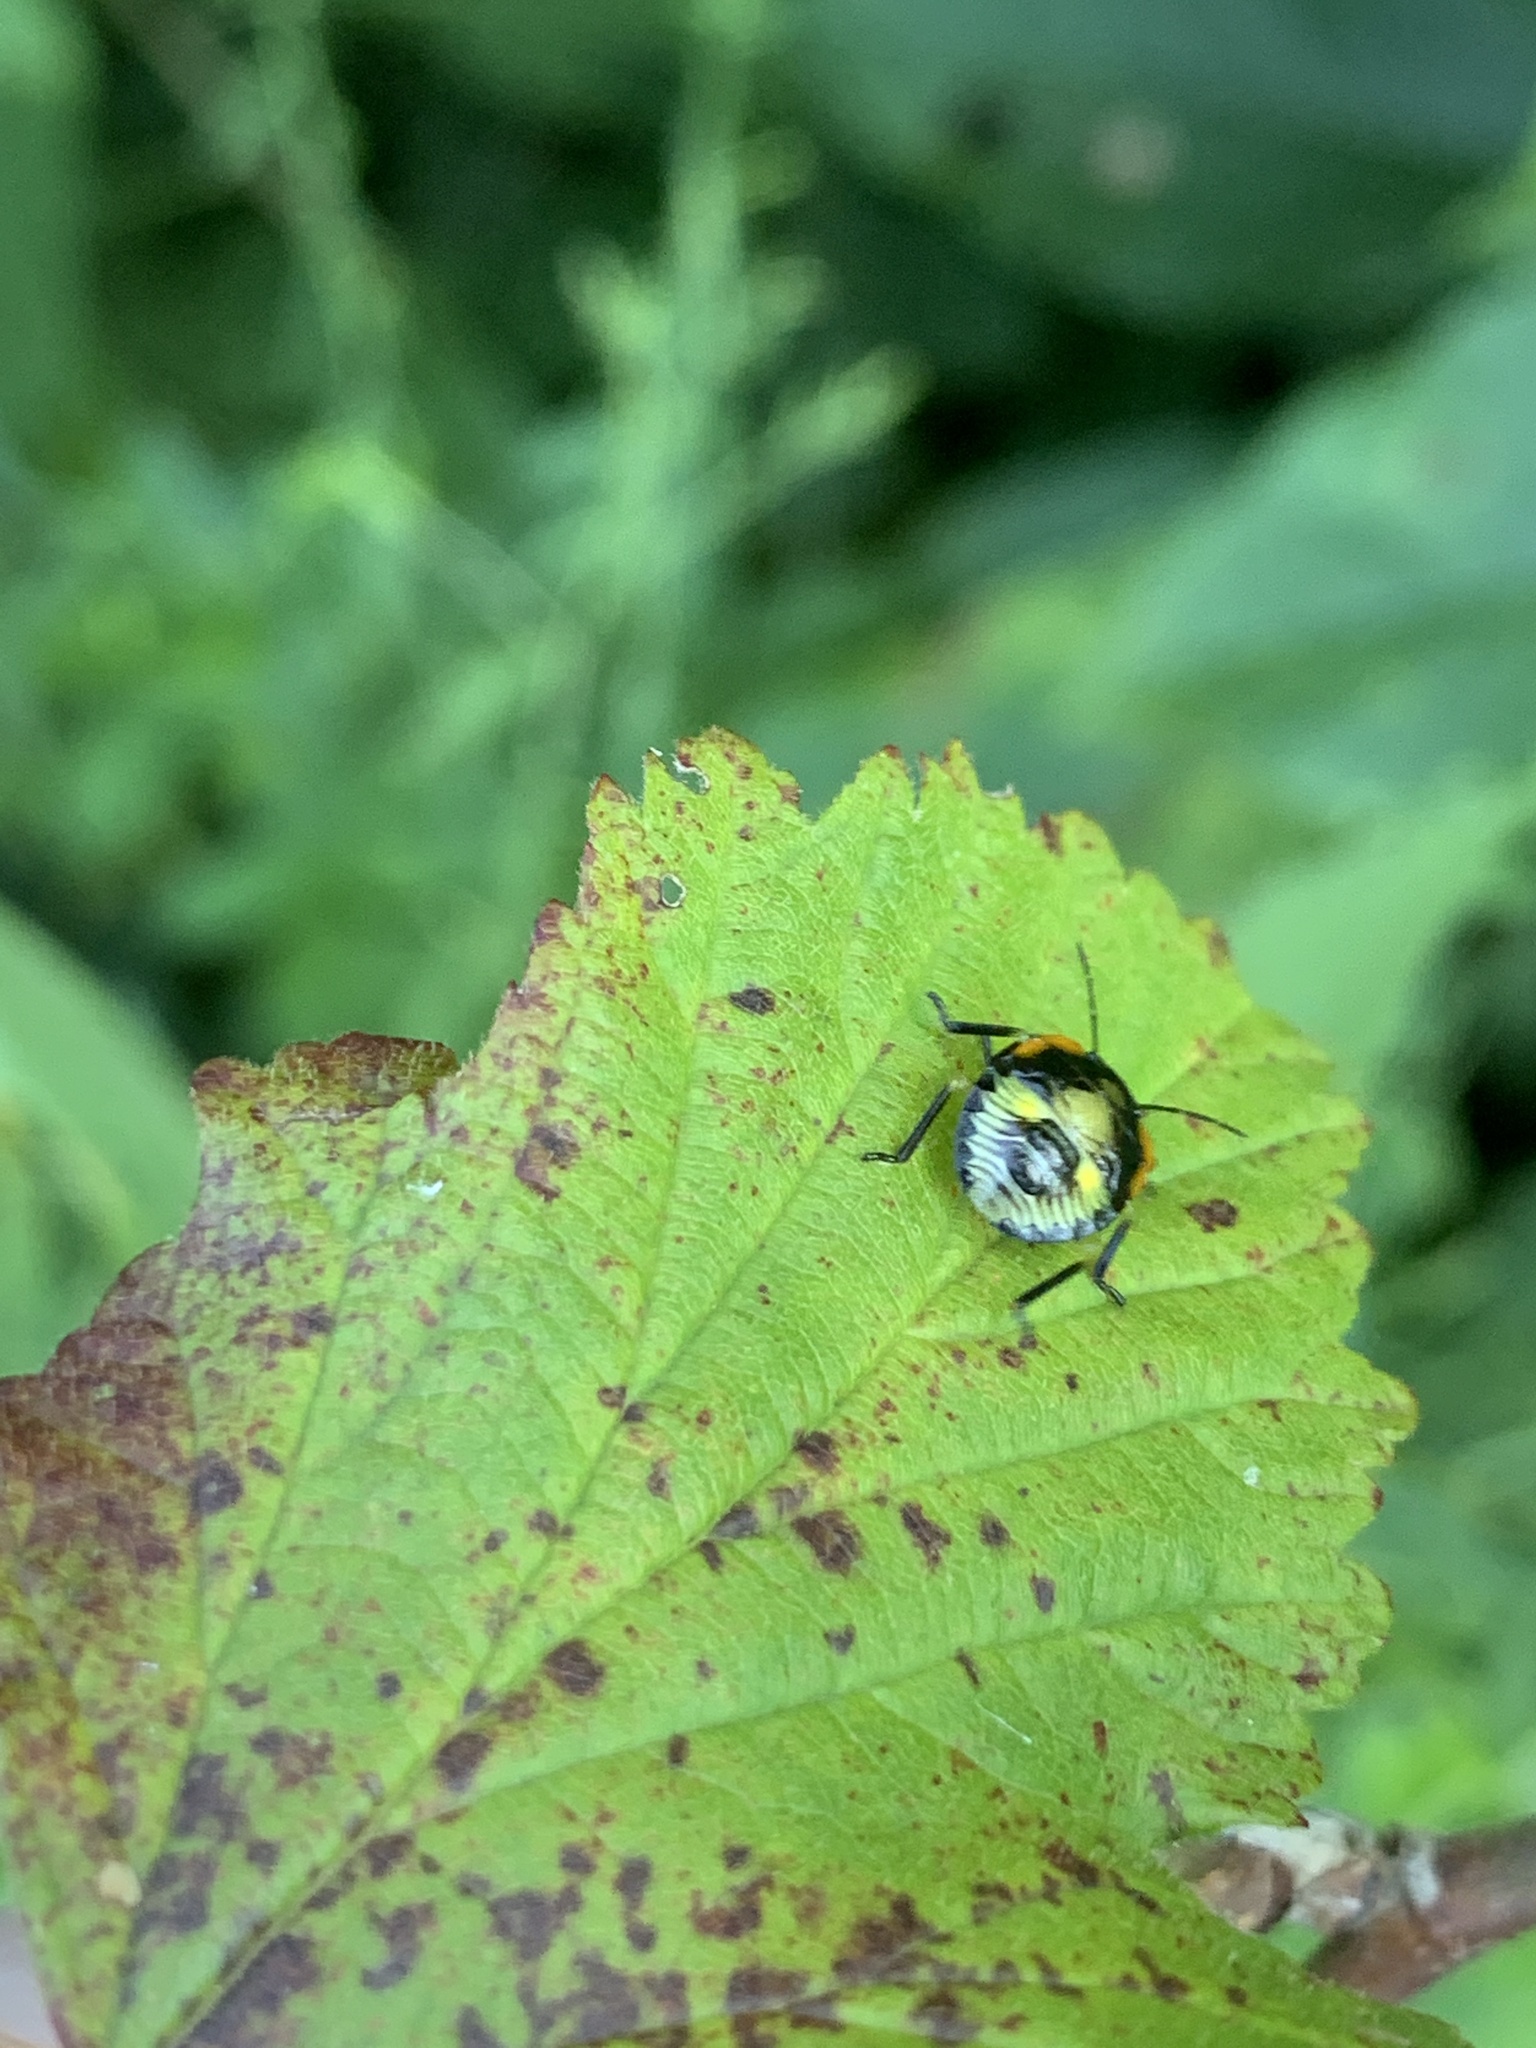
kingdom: Animalia
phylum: Arthropoda
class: Insecta
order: Hemiptera
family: Pentatomidae
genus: Chinavia
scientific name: Chinavia hilaris
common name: Green stink bug
